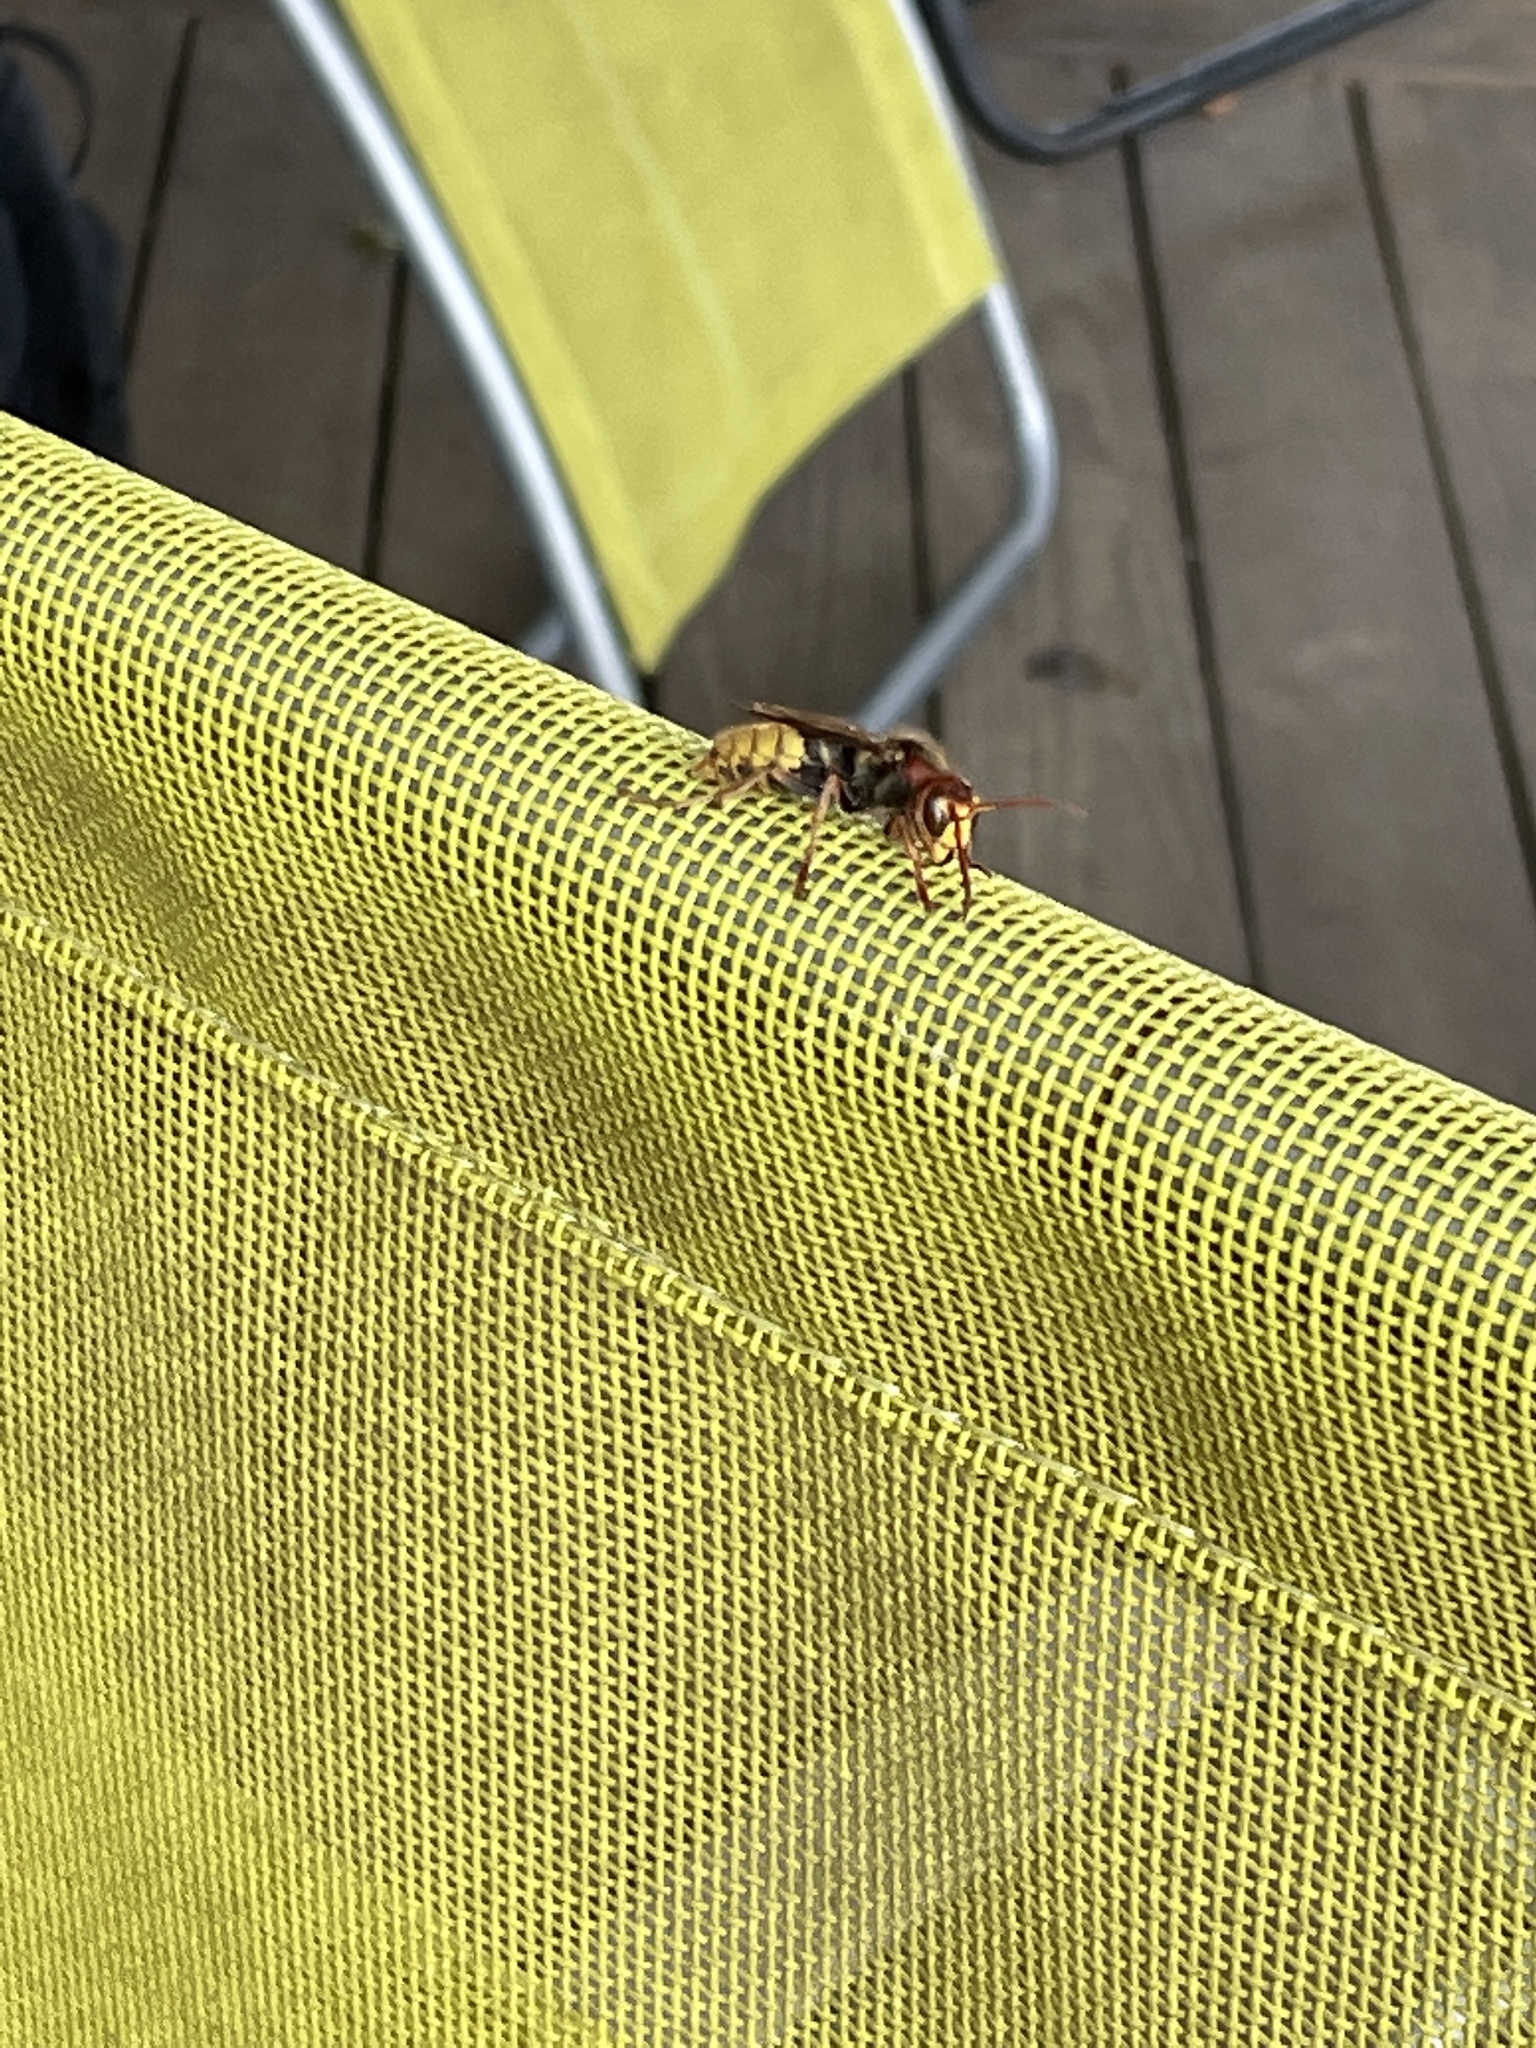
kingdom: Animalia
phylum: Arthropoda
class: Insecta
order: Hymenoptera
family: Vespidae
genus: Vespa
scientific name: Vespa crabro
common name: Hornet
